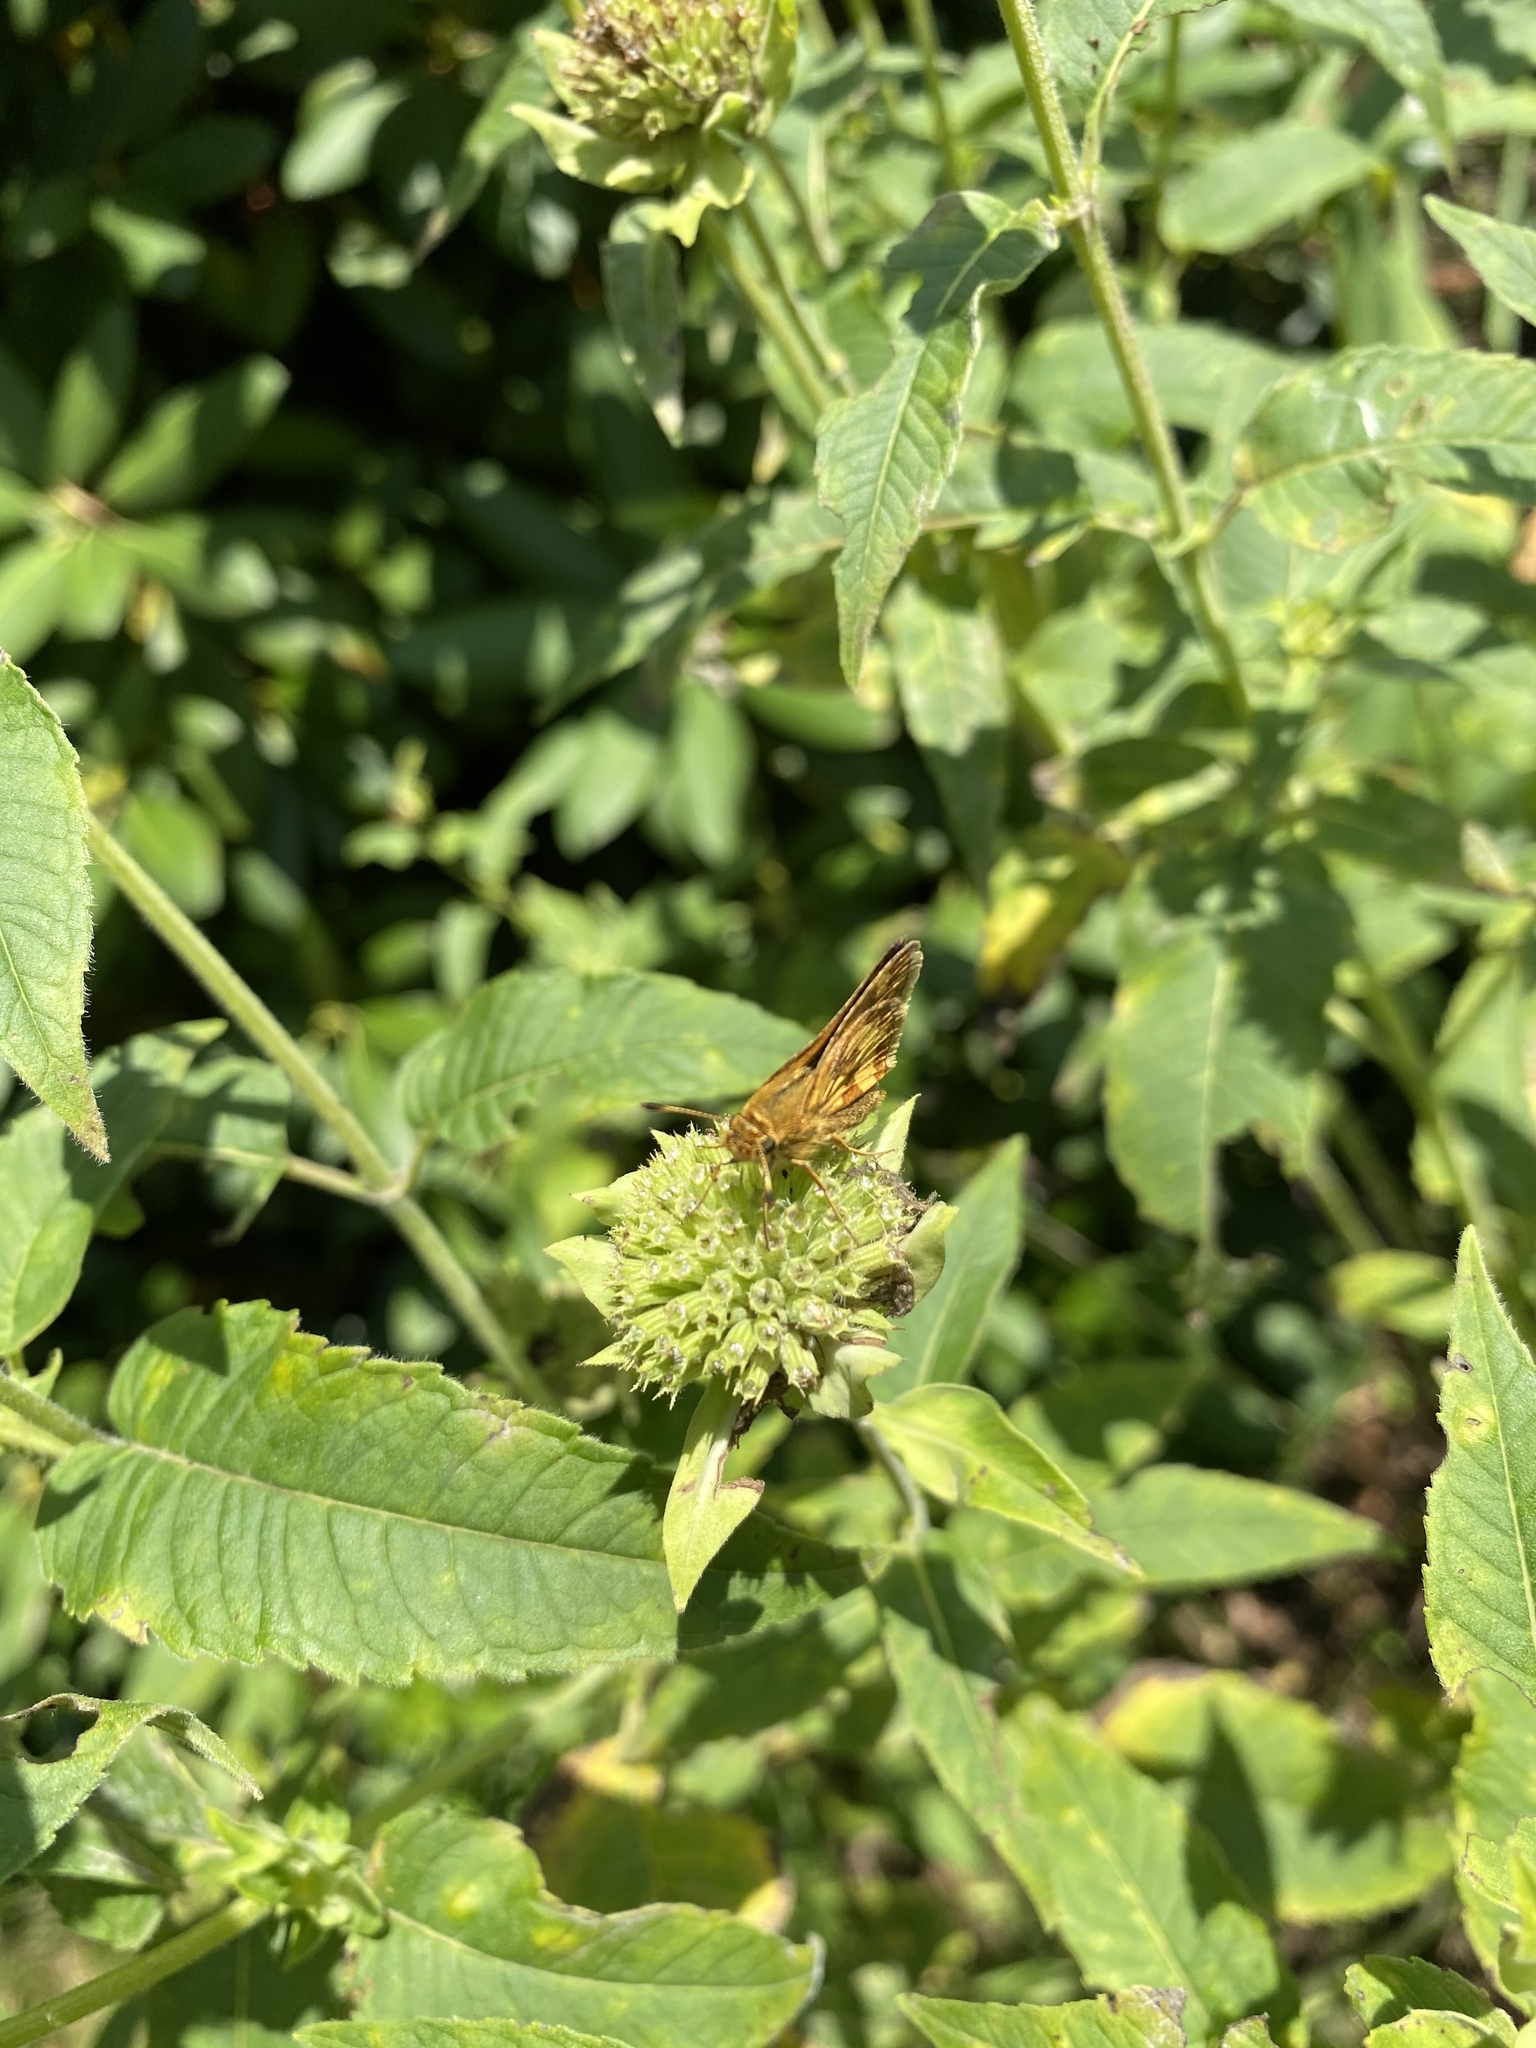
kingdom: Animalia
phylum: Arthropoda
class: Insecta
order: Lepidoptera
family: Hesperiidae
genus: Polites
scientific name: Polites coras
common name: Peck's skipper
